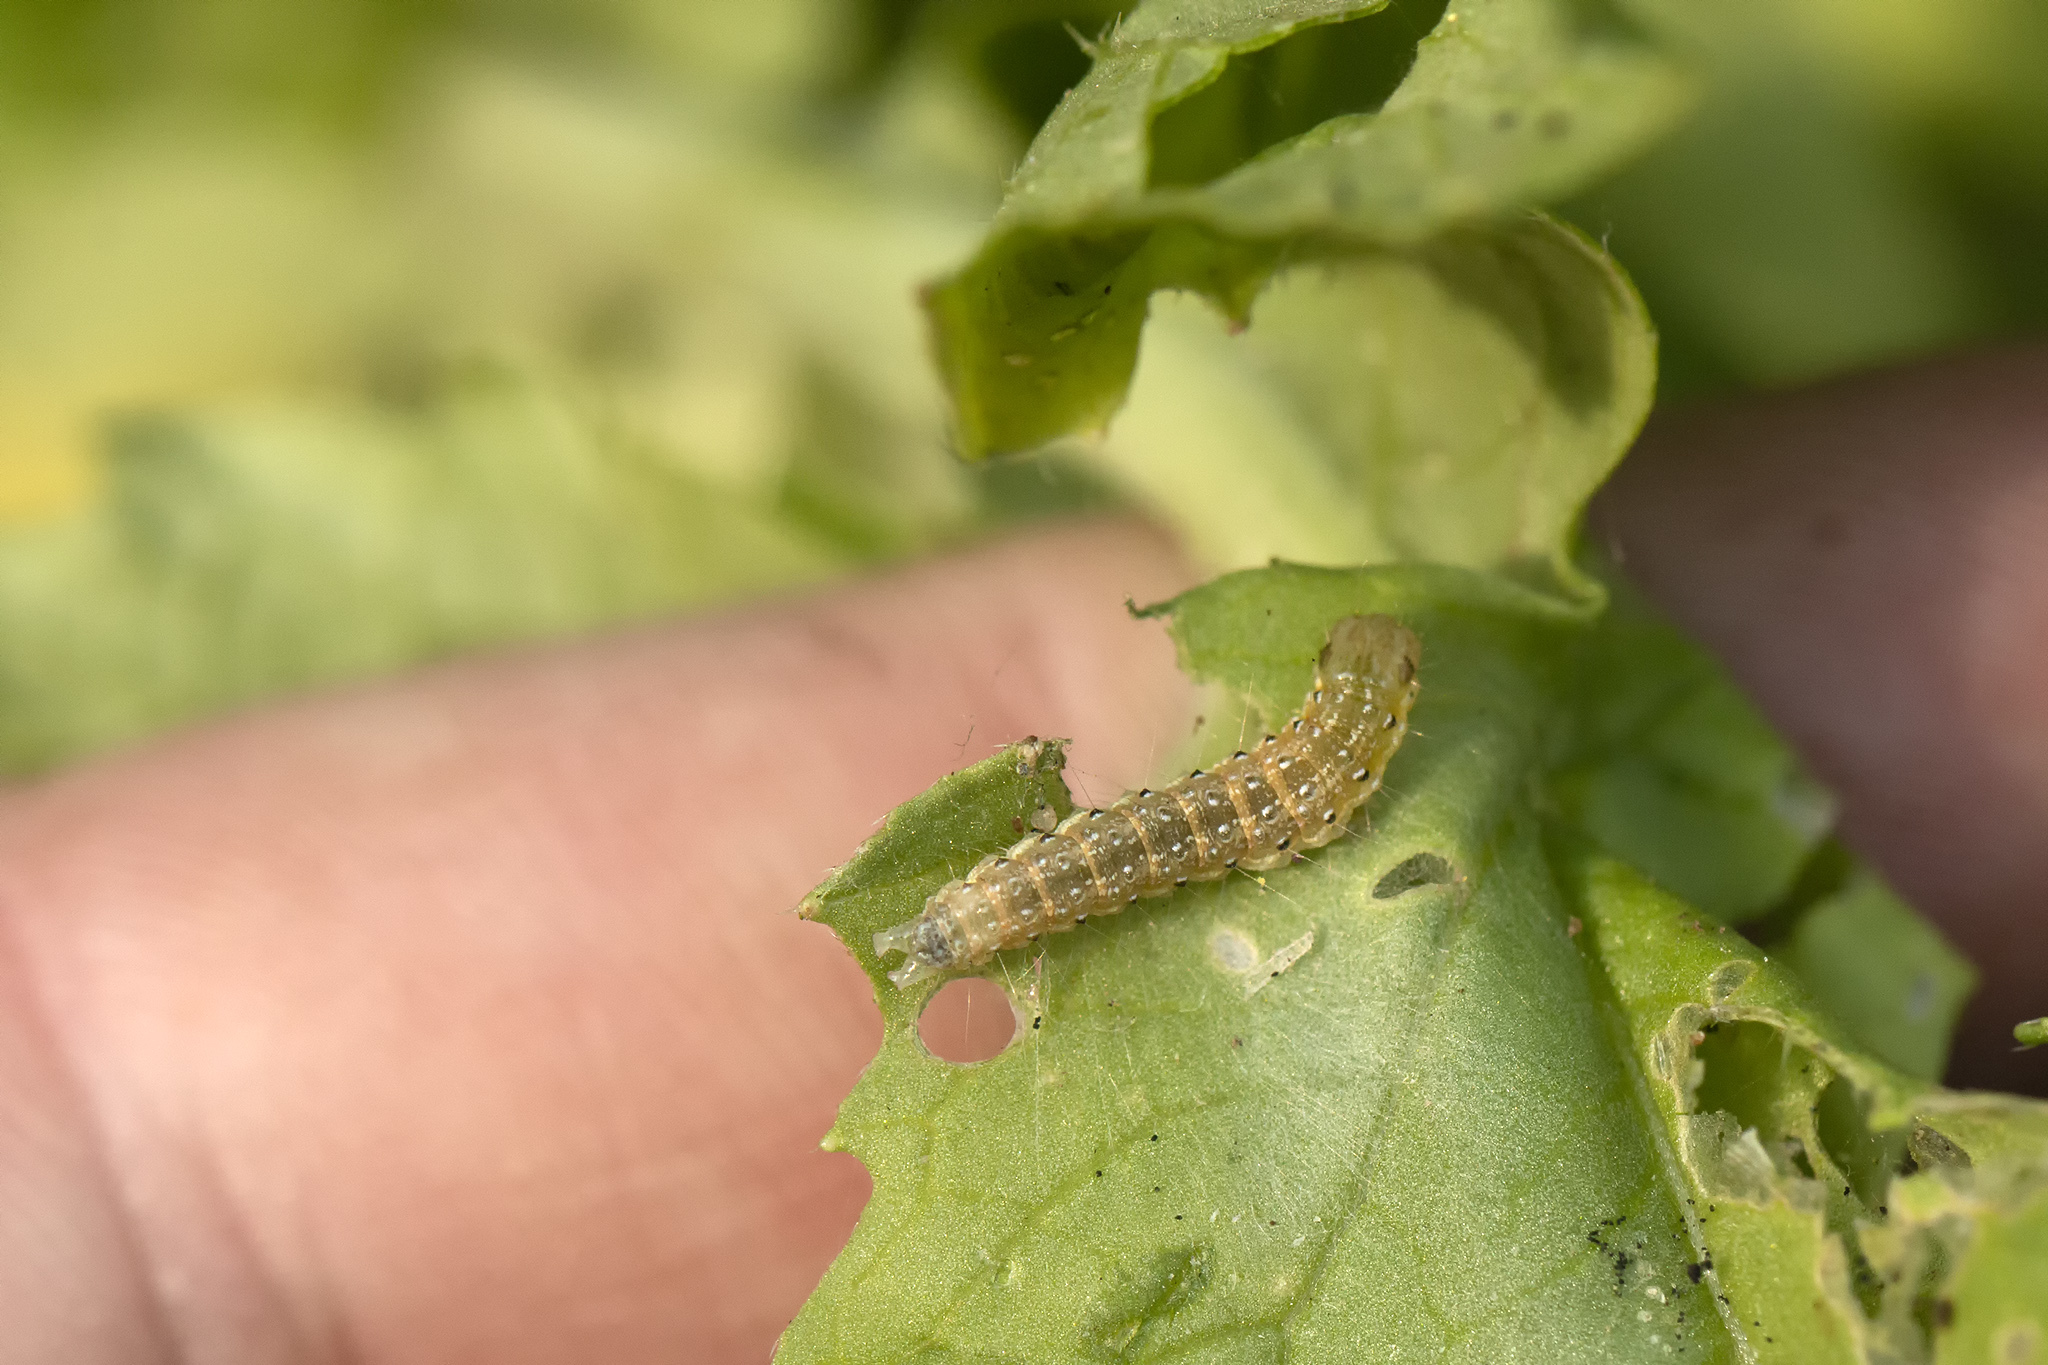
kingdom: Animalia
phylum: Arthropoda
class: Insecta
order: Lepidoptera
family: Crambidae
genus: Evergestis
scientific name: Evergestis forficalis
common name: Garden pebble
